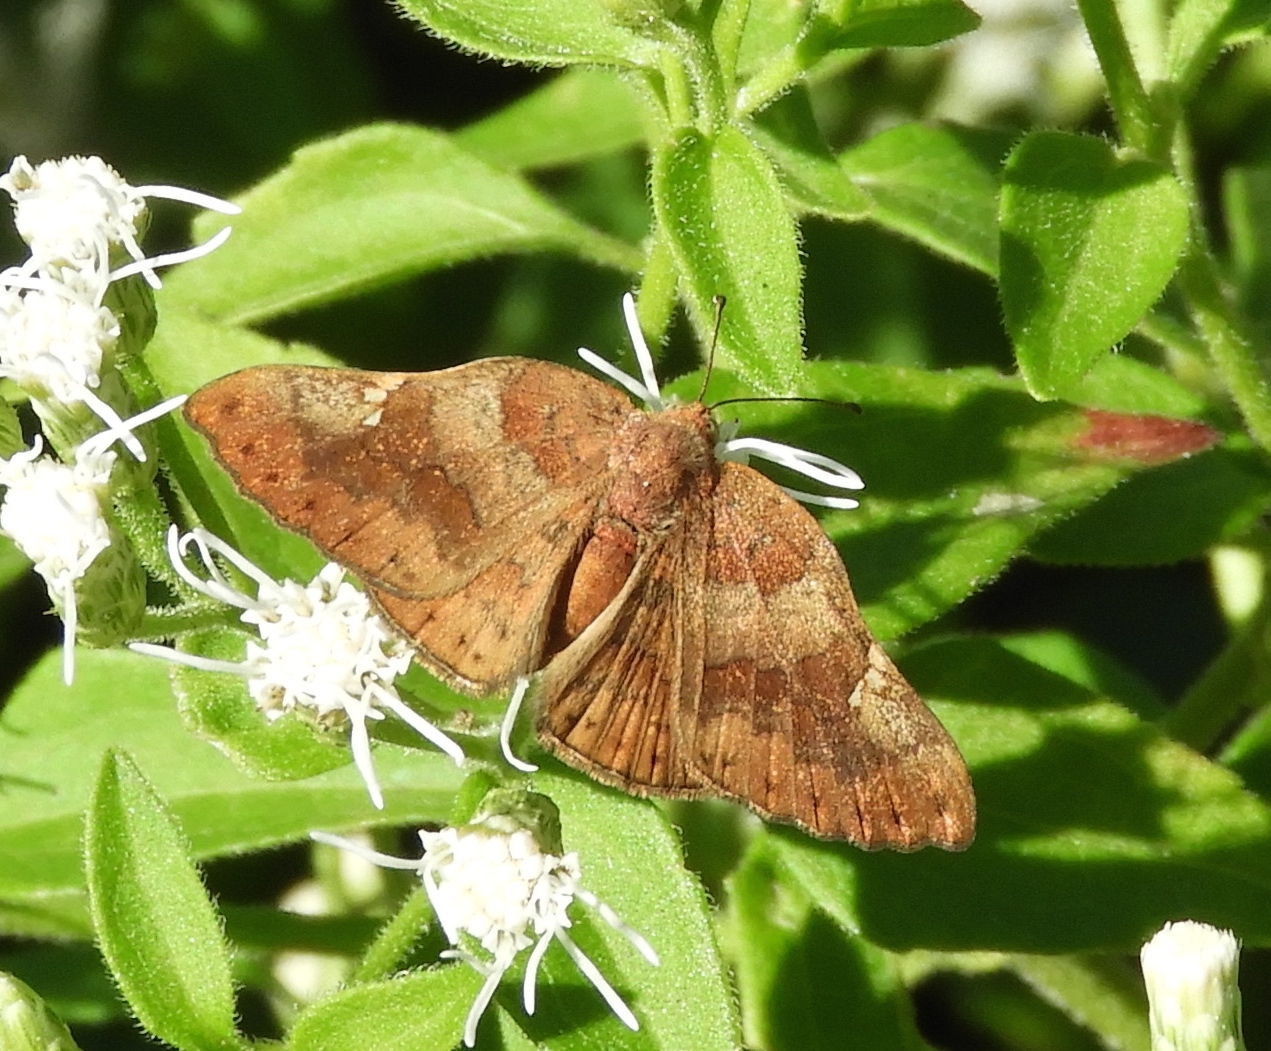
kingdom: Animalia
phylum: Arthropoda
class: Insecta
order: Lepidoptera
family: Riodinidae
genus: Curvie
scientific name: Curvie emesia
